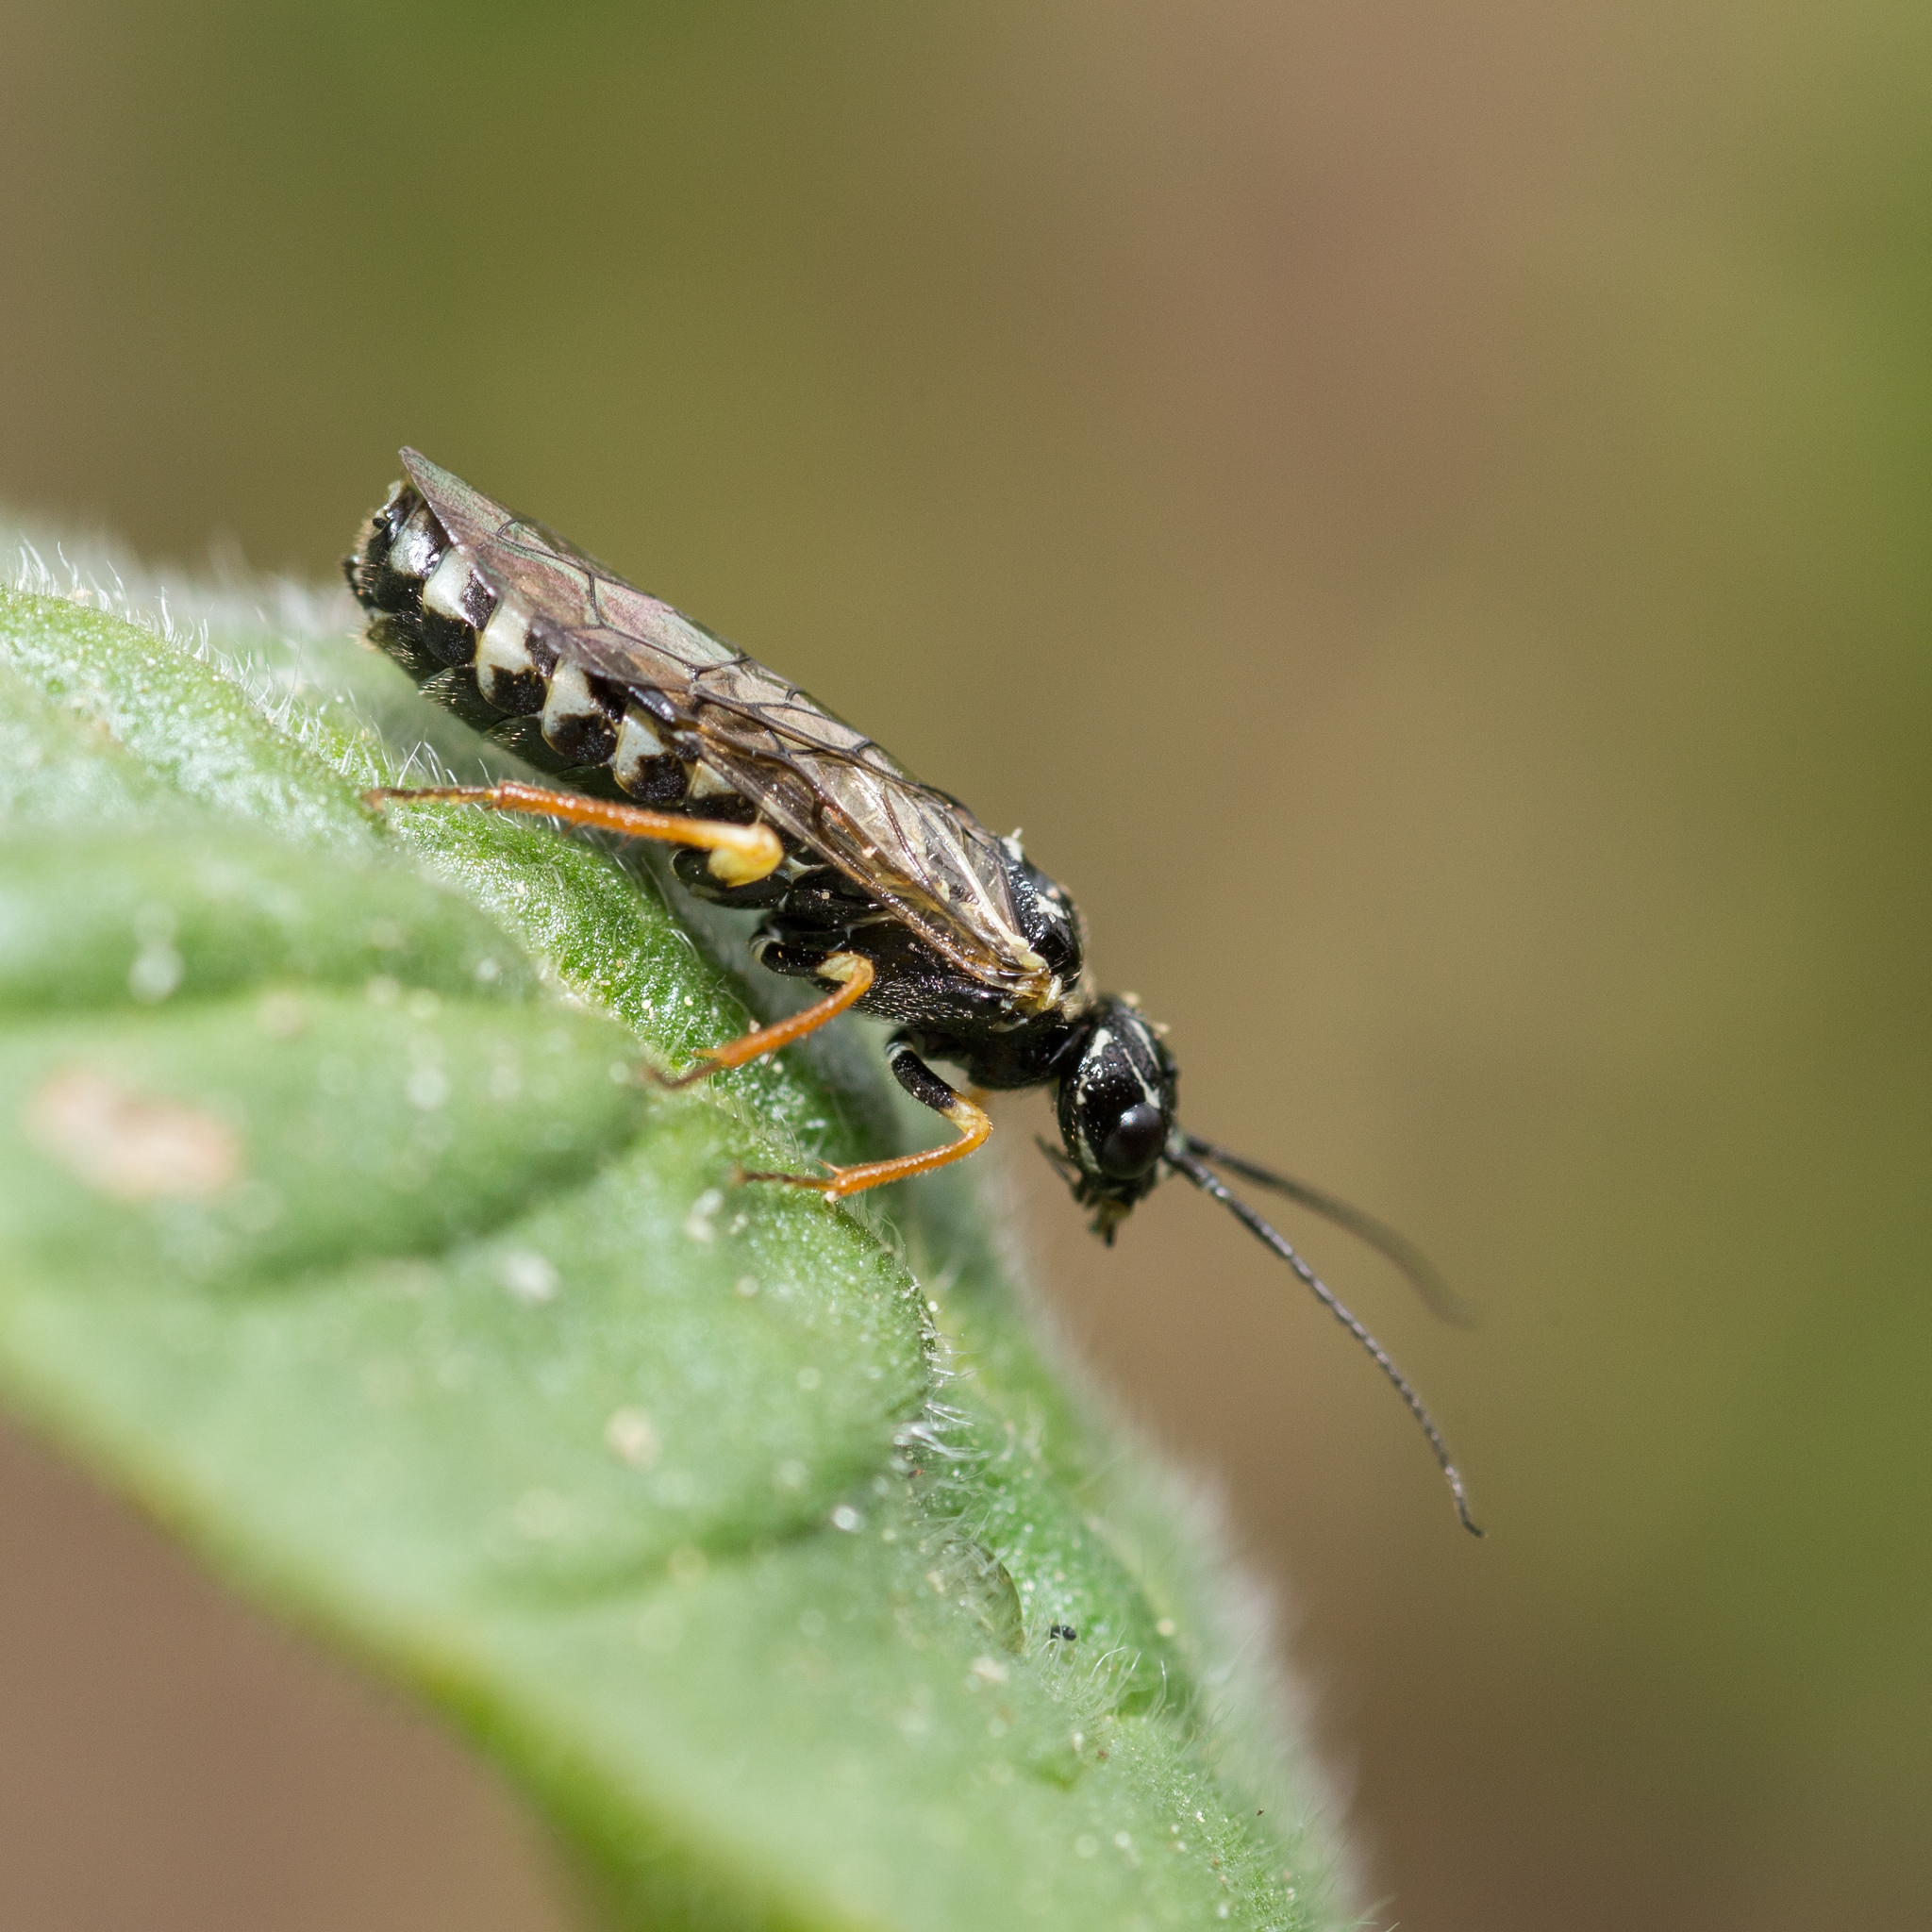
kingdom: Animalia
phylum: Arthropoda
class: Insecta
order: Hymenoptera
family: Pamphiliidae
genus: Neurotoma
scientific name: Neurotoma nemoralis
